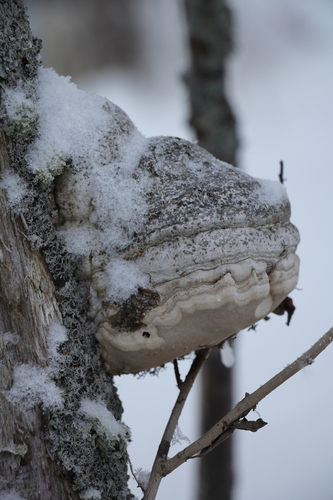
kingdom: Fungi
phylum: Basidiomycota
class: Agaricomycetes
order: Polyporales
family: Polyporaceae
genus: Fomes
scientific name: Fomes fomentarius
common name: Hoof fungus
